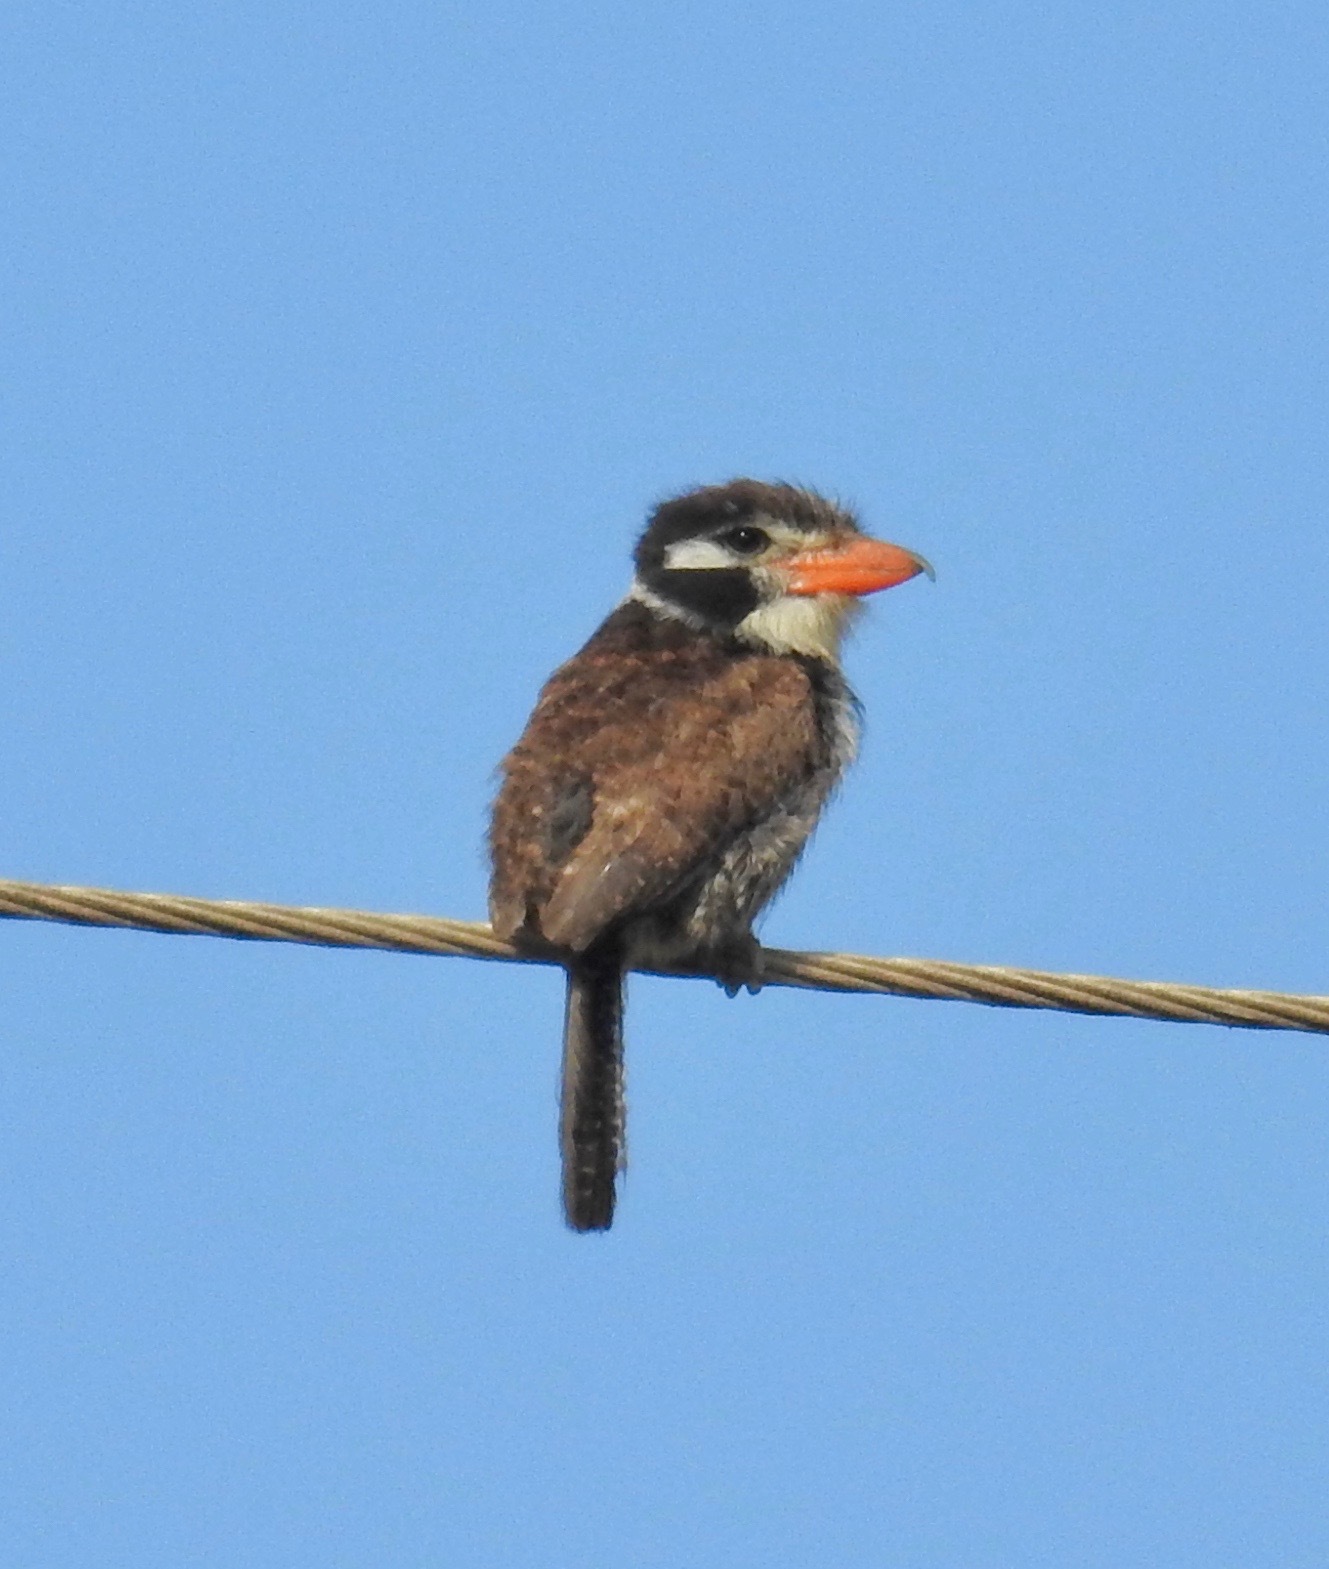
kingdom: Animalia
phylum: Chordata
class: Aves
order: Piciformes
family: Bucconidae
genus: Nystalus
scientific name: Nystalus chacuru
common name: White-eared puffbird
